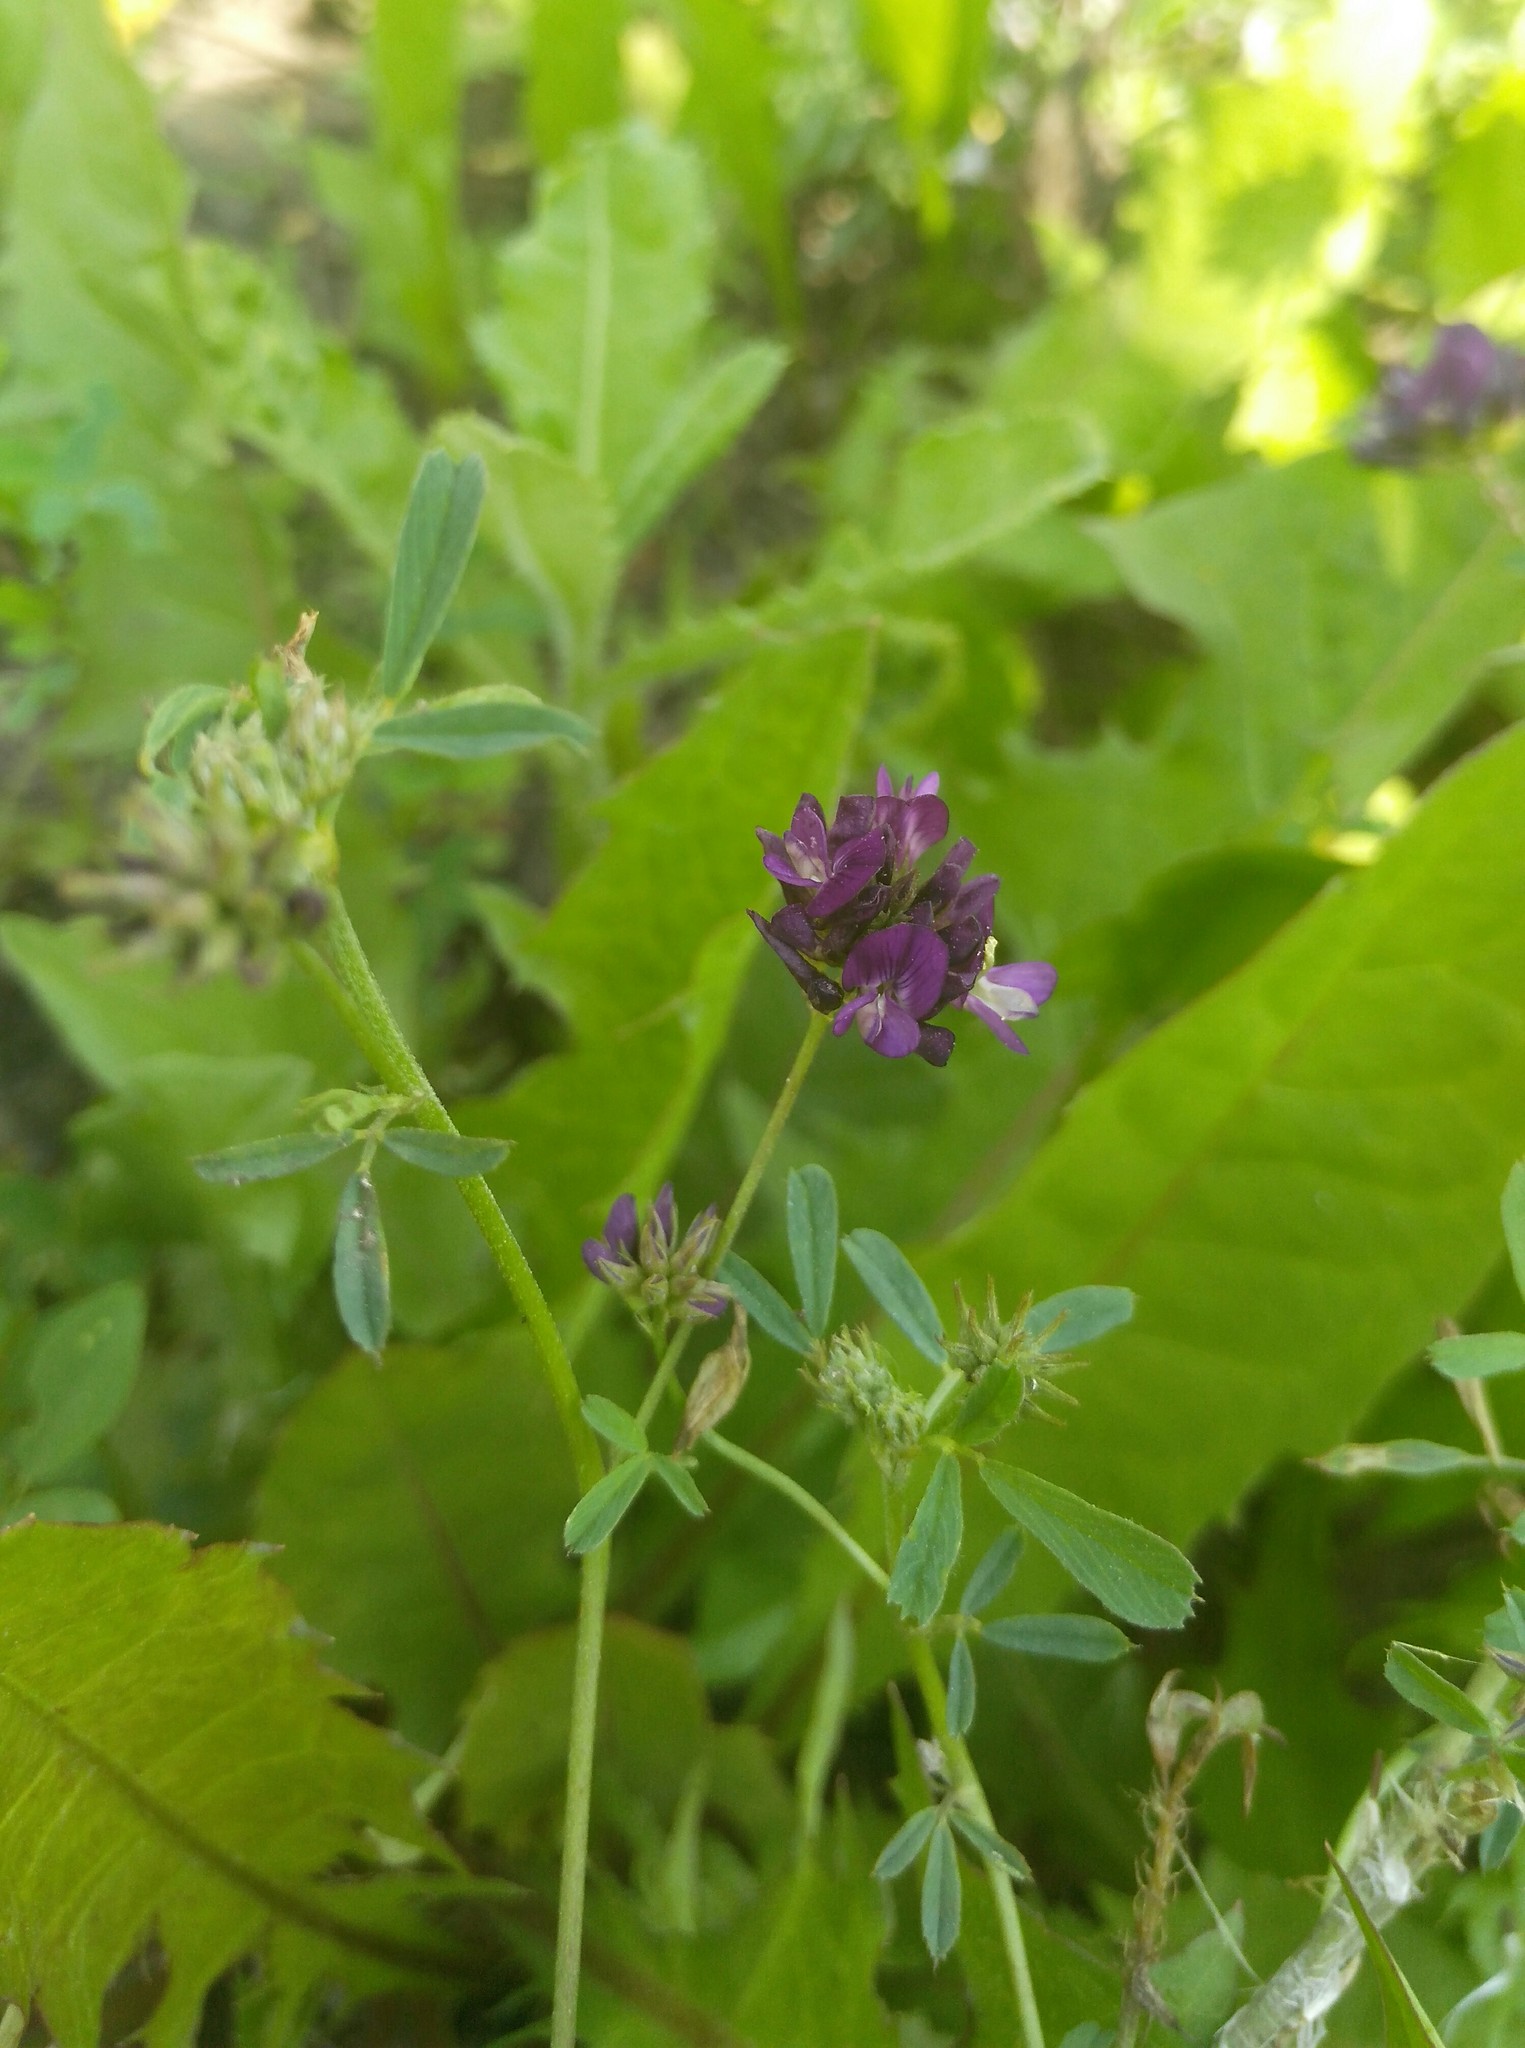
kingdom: Plantae
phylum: Tracheophyta
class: Magnoliopsida
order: Fabales
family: Fabaceae
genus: Medicago
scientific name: Medicago sativa
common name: Alfalfa
